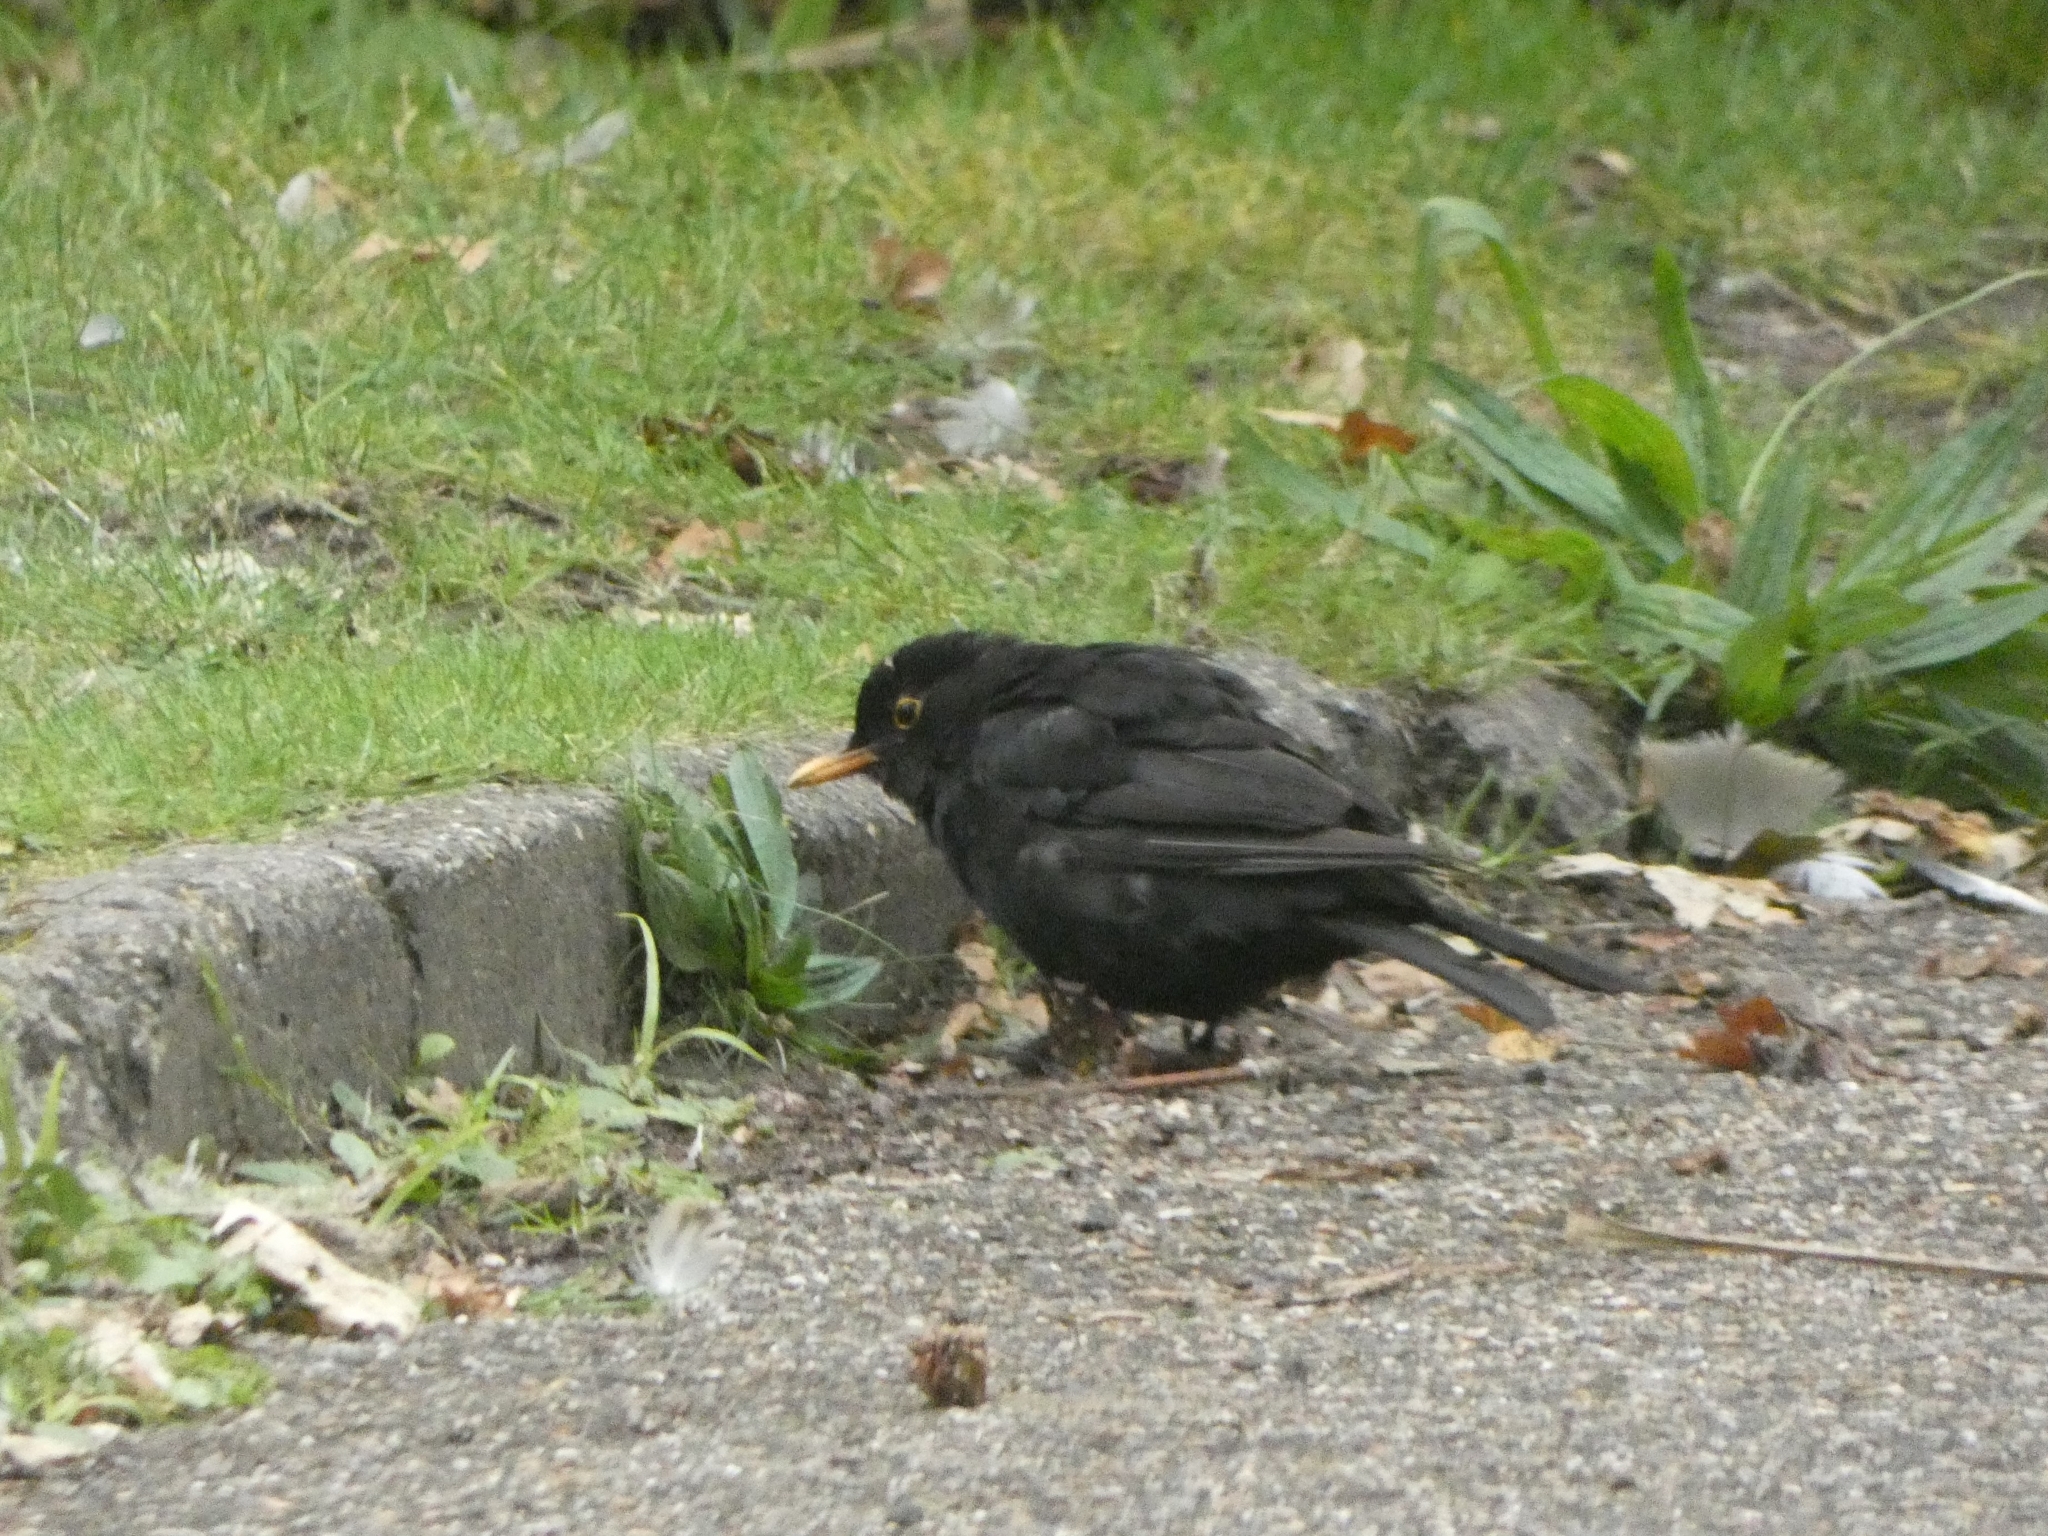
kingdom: Animalia
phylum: Chordata
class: Aves
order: Passeriformes
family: Turdidae
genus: Turdus
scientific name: Turdus merula
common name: Common blackbird
